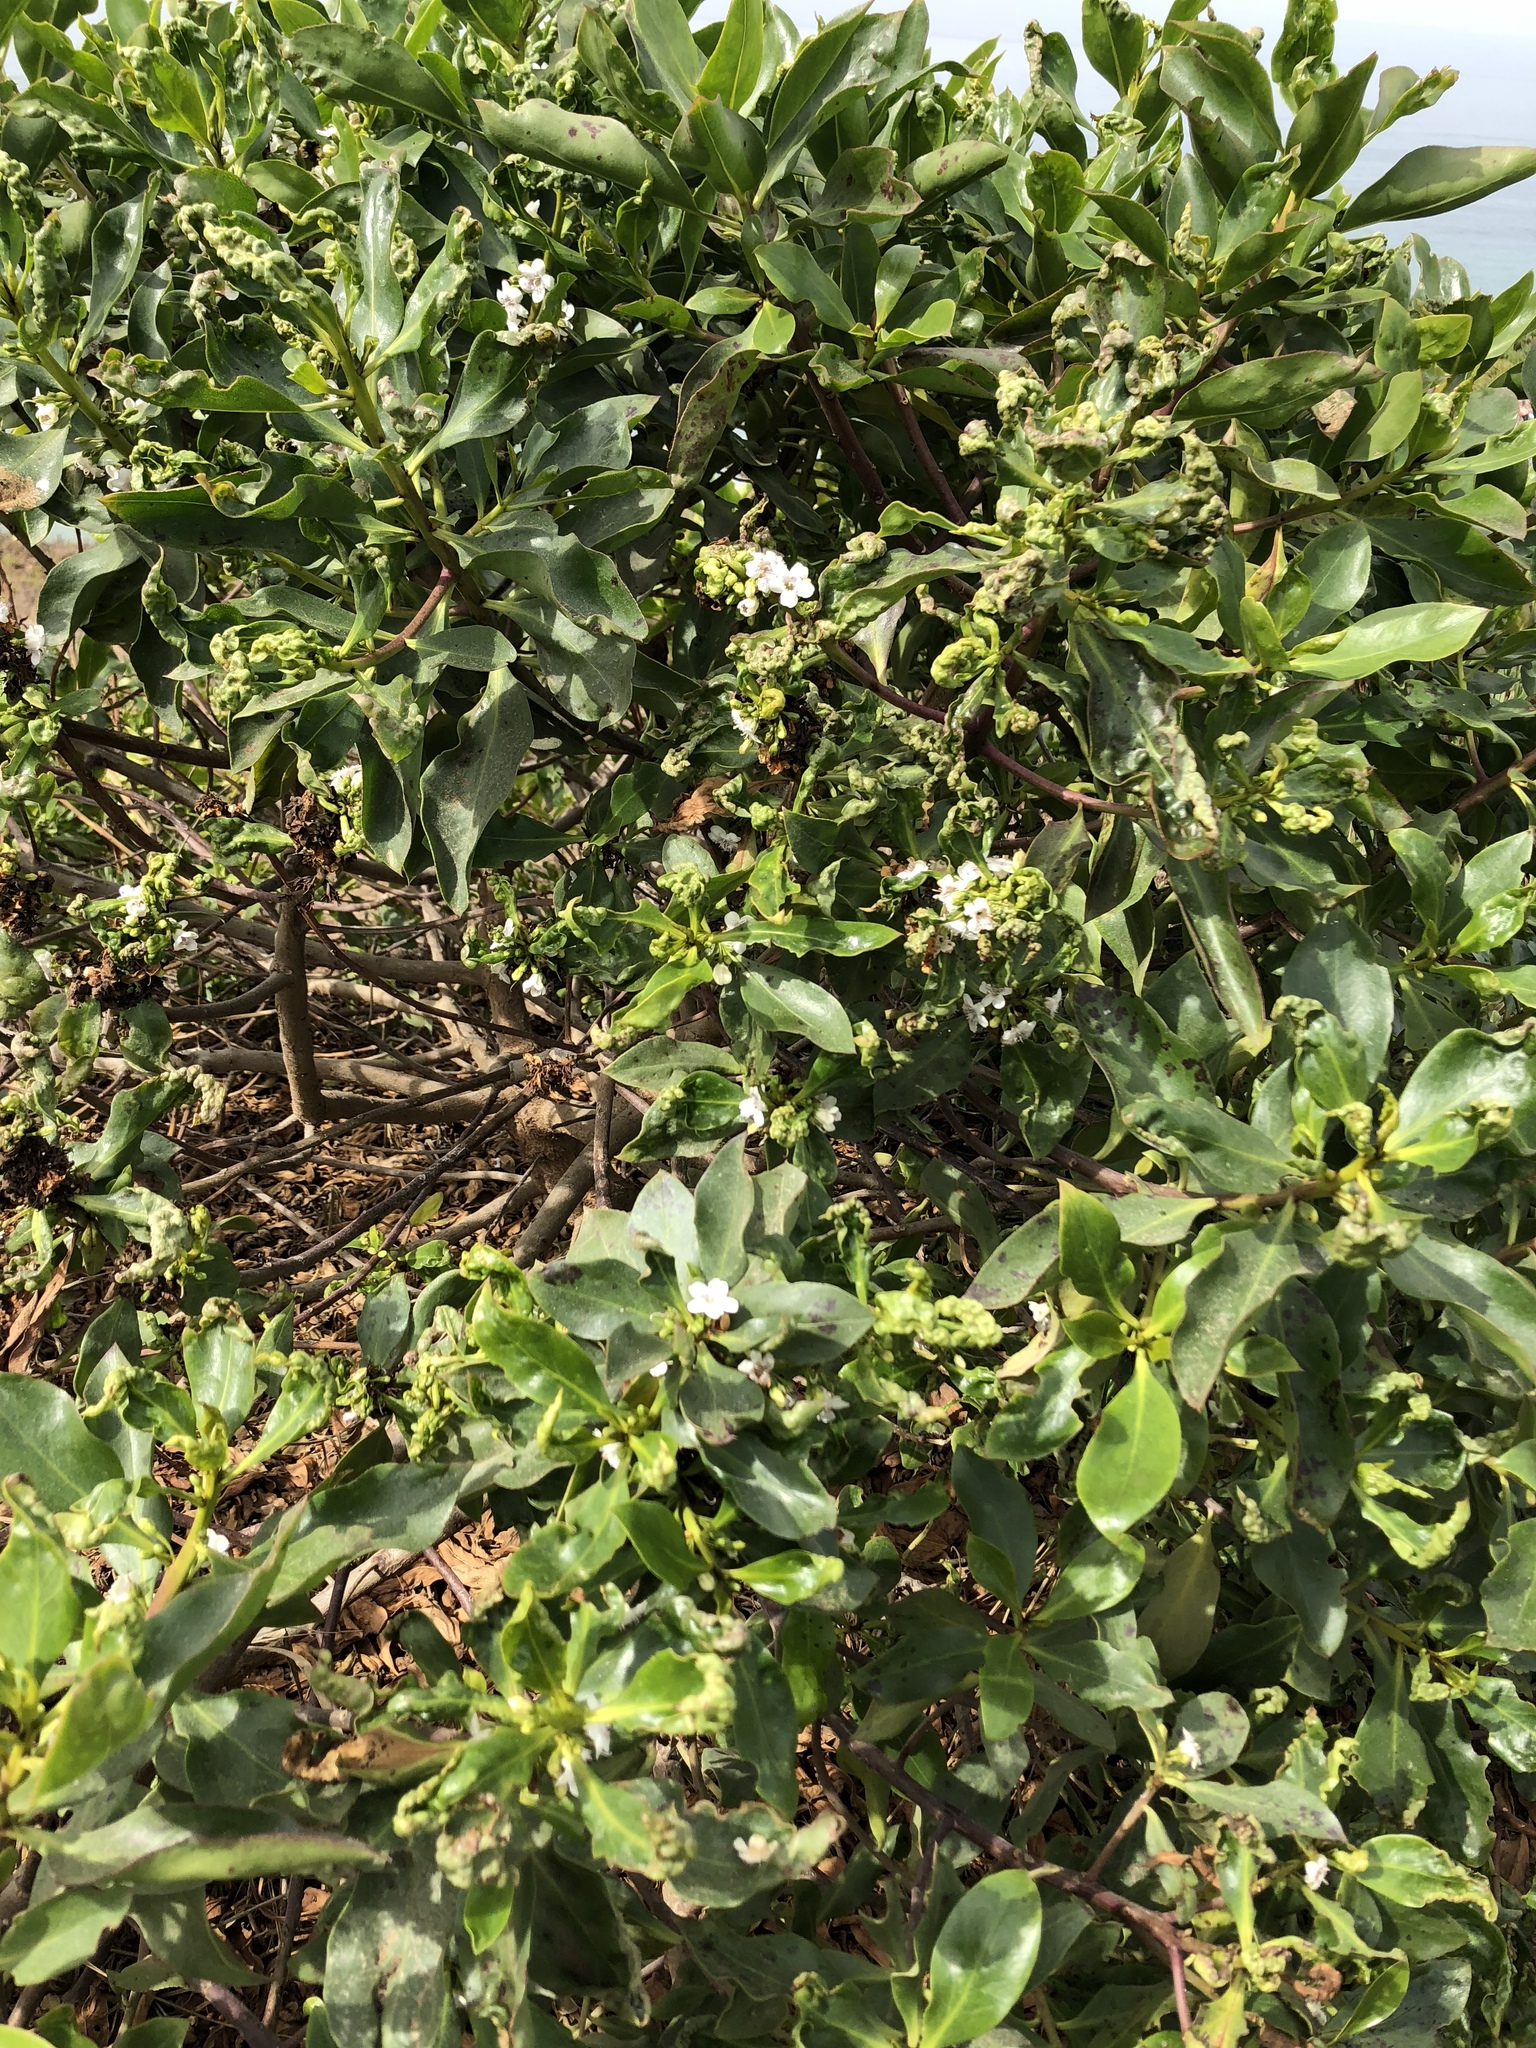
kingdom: Plantae
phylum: Tracheophyta
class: Magnoliopsida
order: Lamiales
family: Scrophulariaceae
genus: Myoporum
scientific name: Myoporum laetum
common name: Ngaio tree
